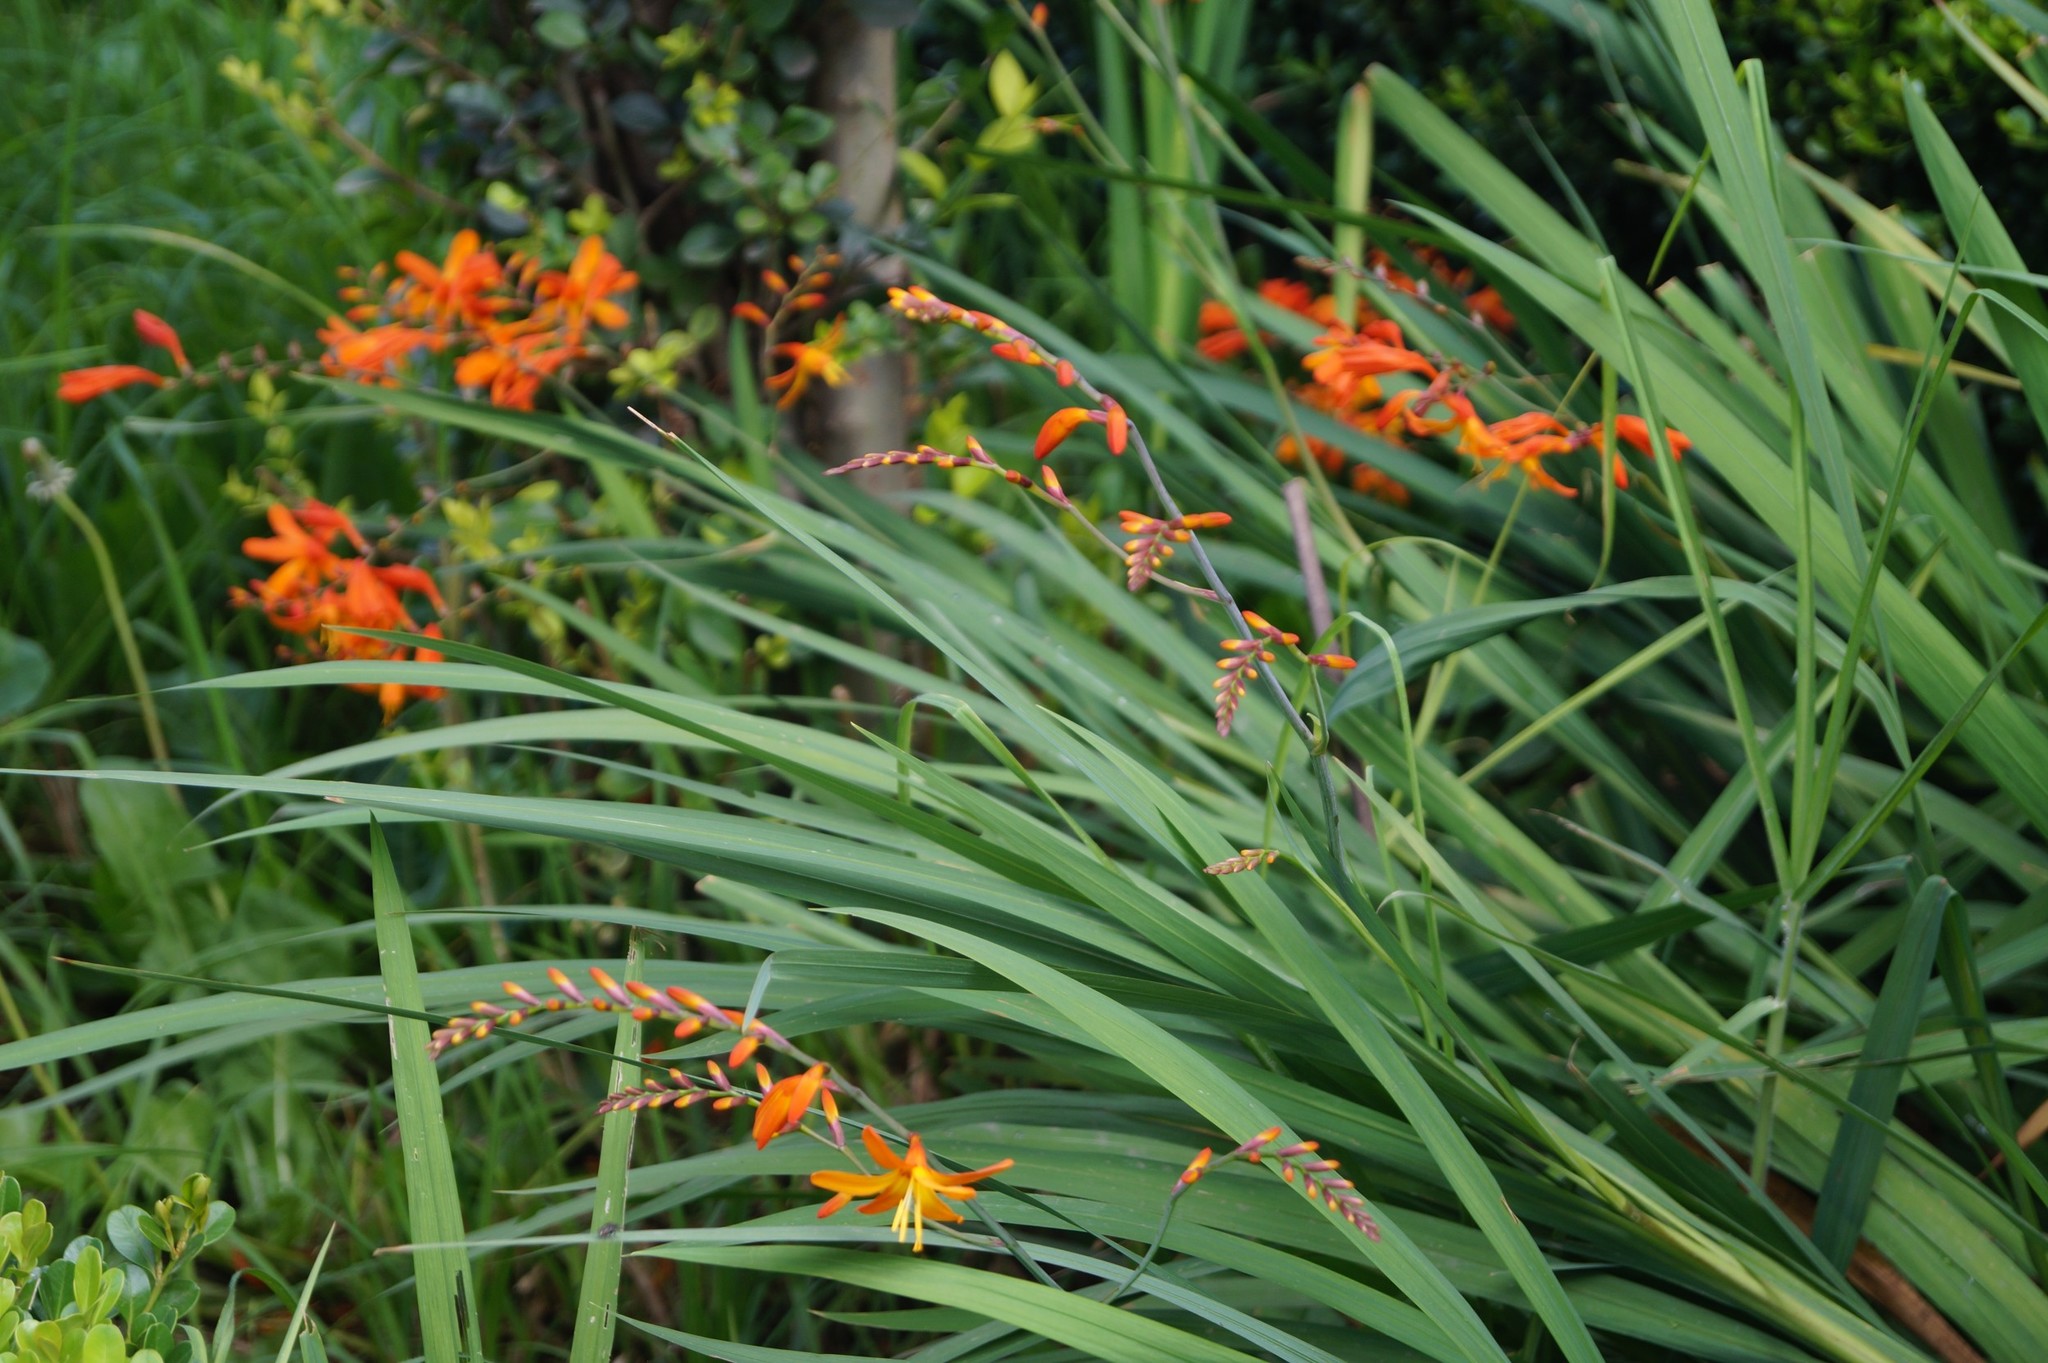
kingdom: Plantae
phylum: Tracheophyta
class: Liliopsida
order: Asparagales
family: Iridaceae
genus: Crocosmia
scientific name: Crocosmia crocosmiiflora
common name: Montbretia
